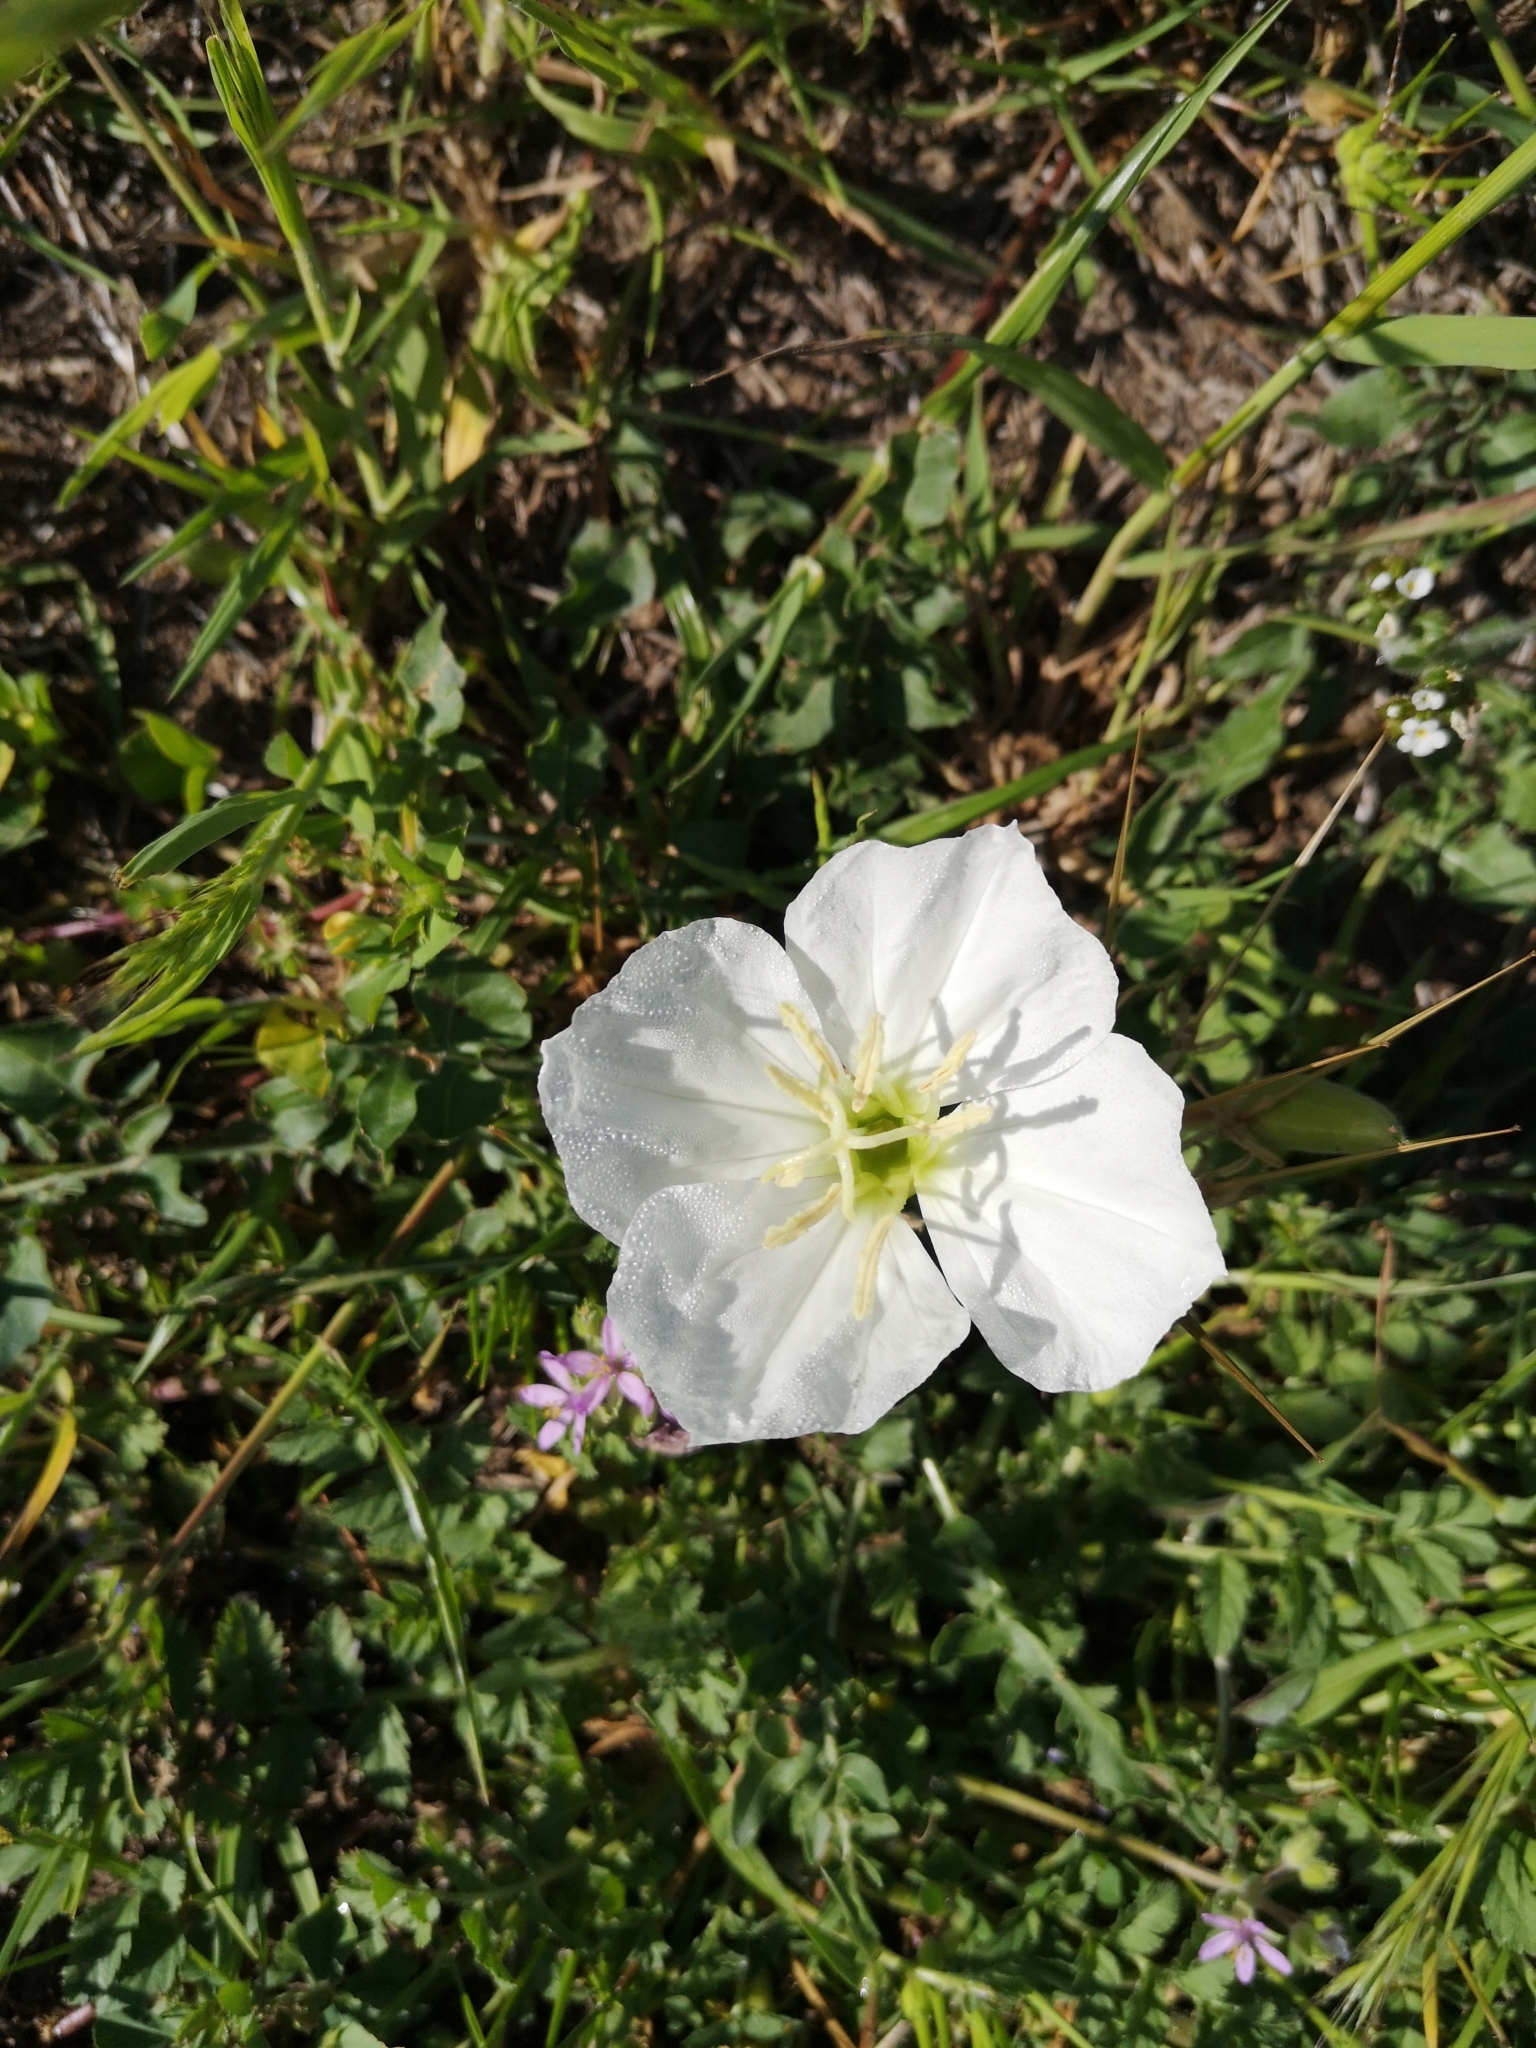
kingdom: Plantae
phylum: Tracheophyta
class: Magnoliopsida
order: Myrtales
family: Onagraceae
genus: Oenothera
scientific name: Oenothera acaulis
